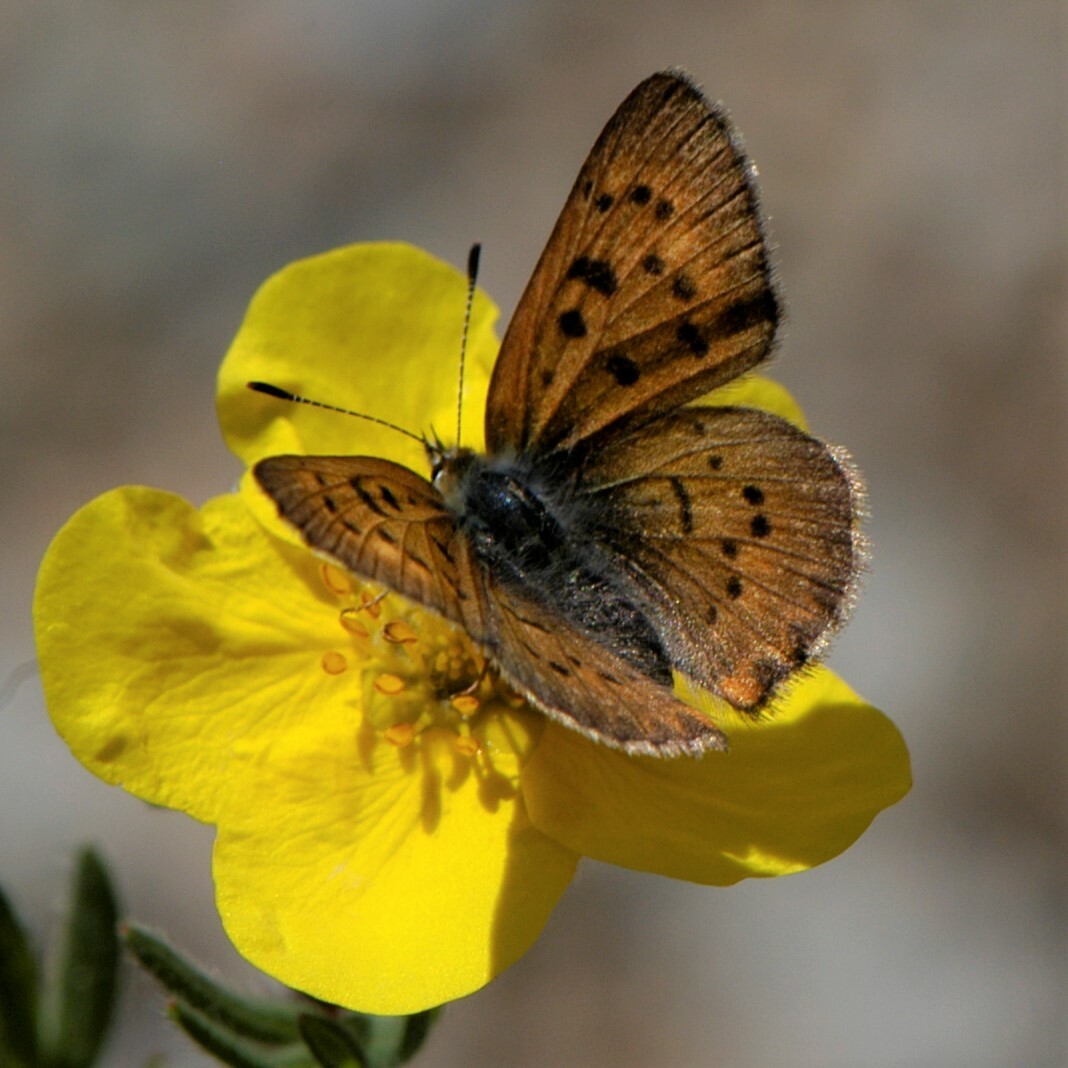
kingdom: Animalia
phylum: Arthropoda
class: Insecta
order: Lepidoptera
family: Lycaenidae
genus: Tharsalea
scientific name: Tharsalea dorcas
